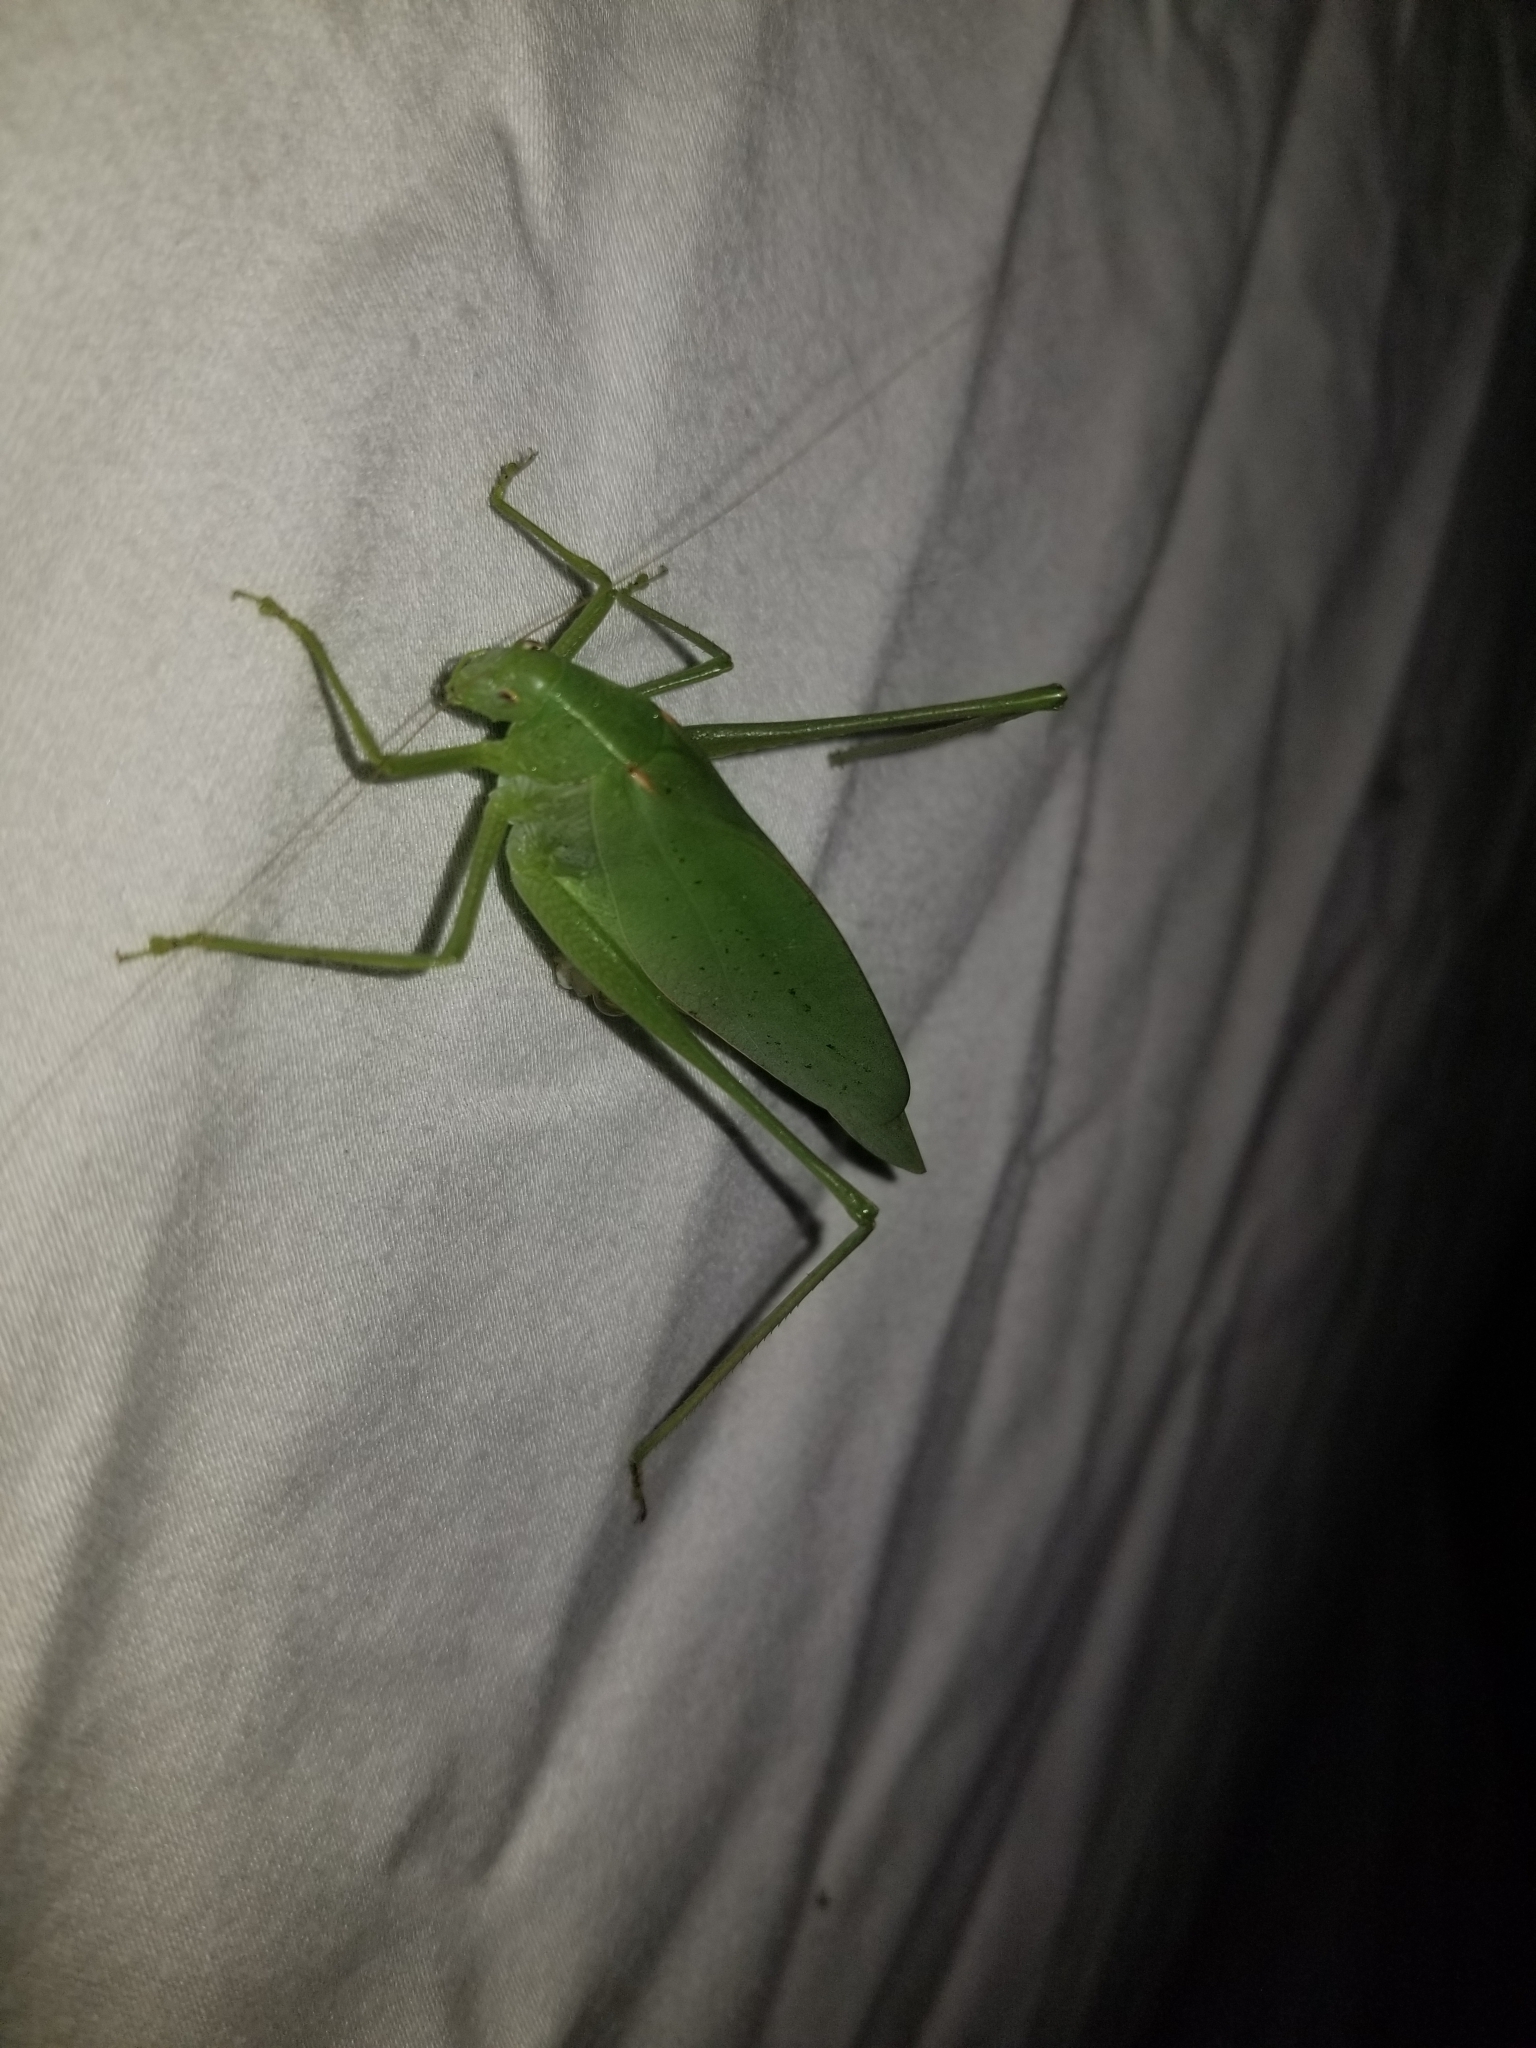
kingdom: Animalia
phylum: Arthropoda
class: Insecta
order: Orthoptera
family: Tettigoniidae
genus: Amblycorypha
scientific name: Amblycorypha oblongifolia
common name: Oblong-winged katydid
